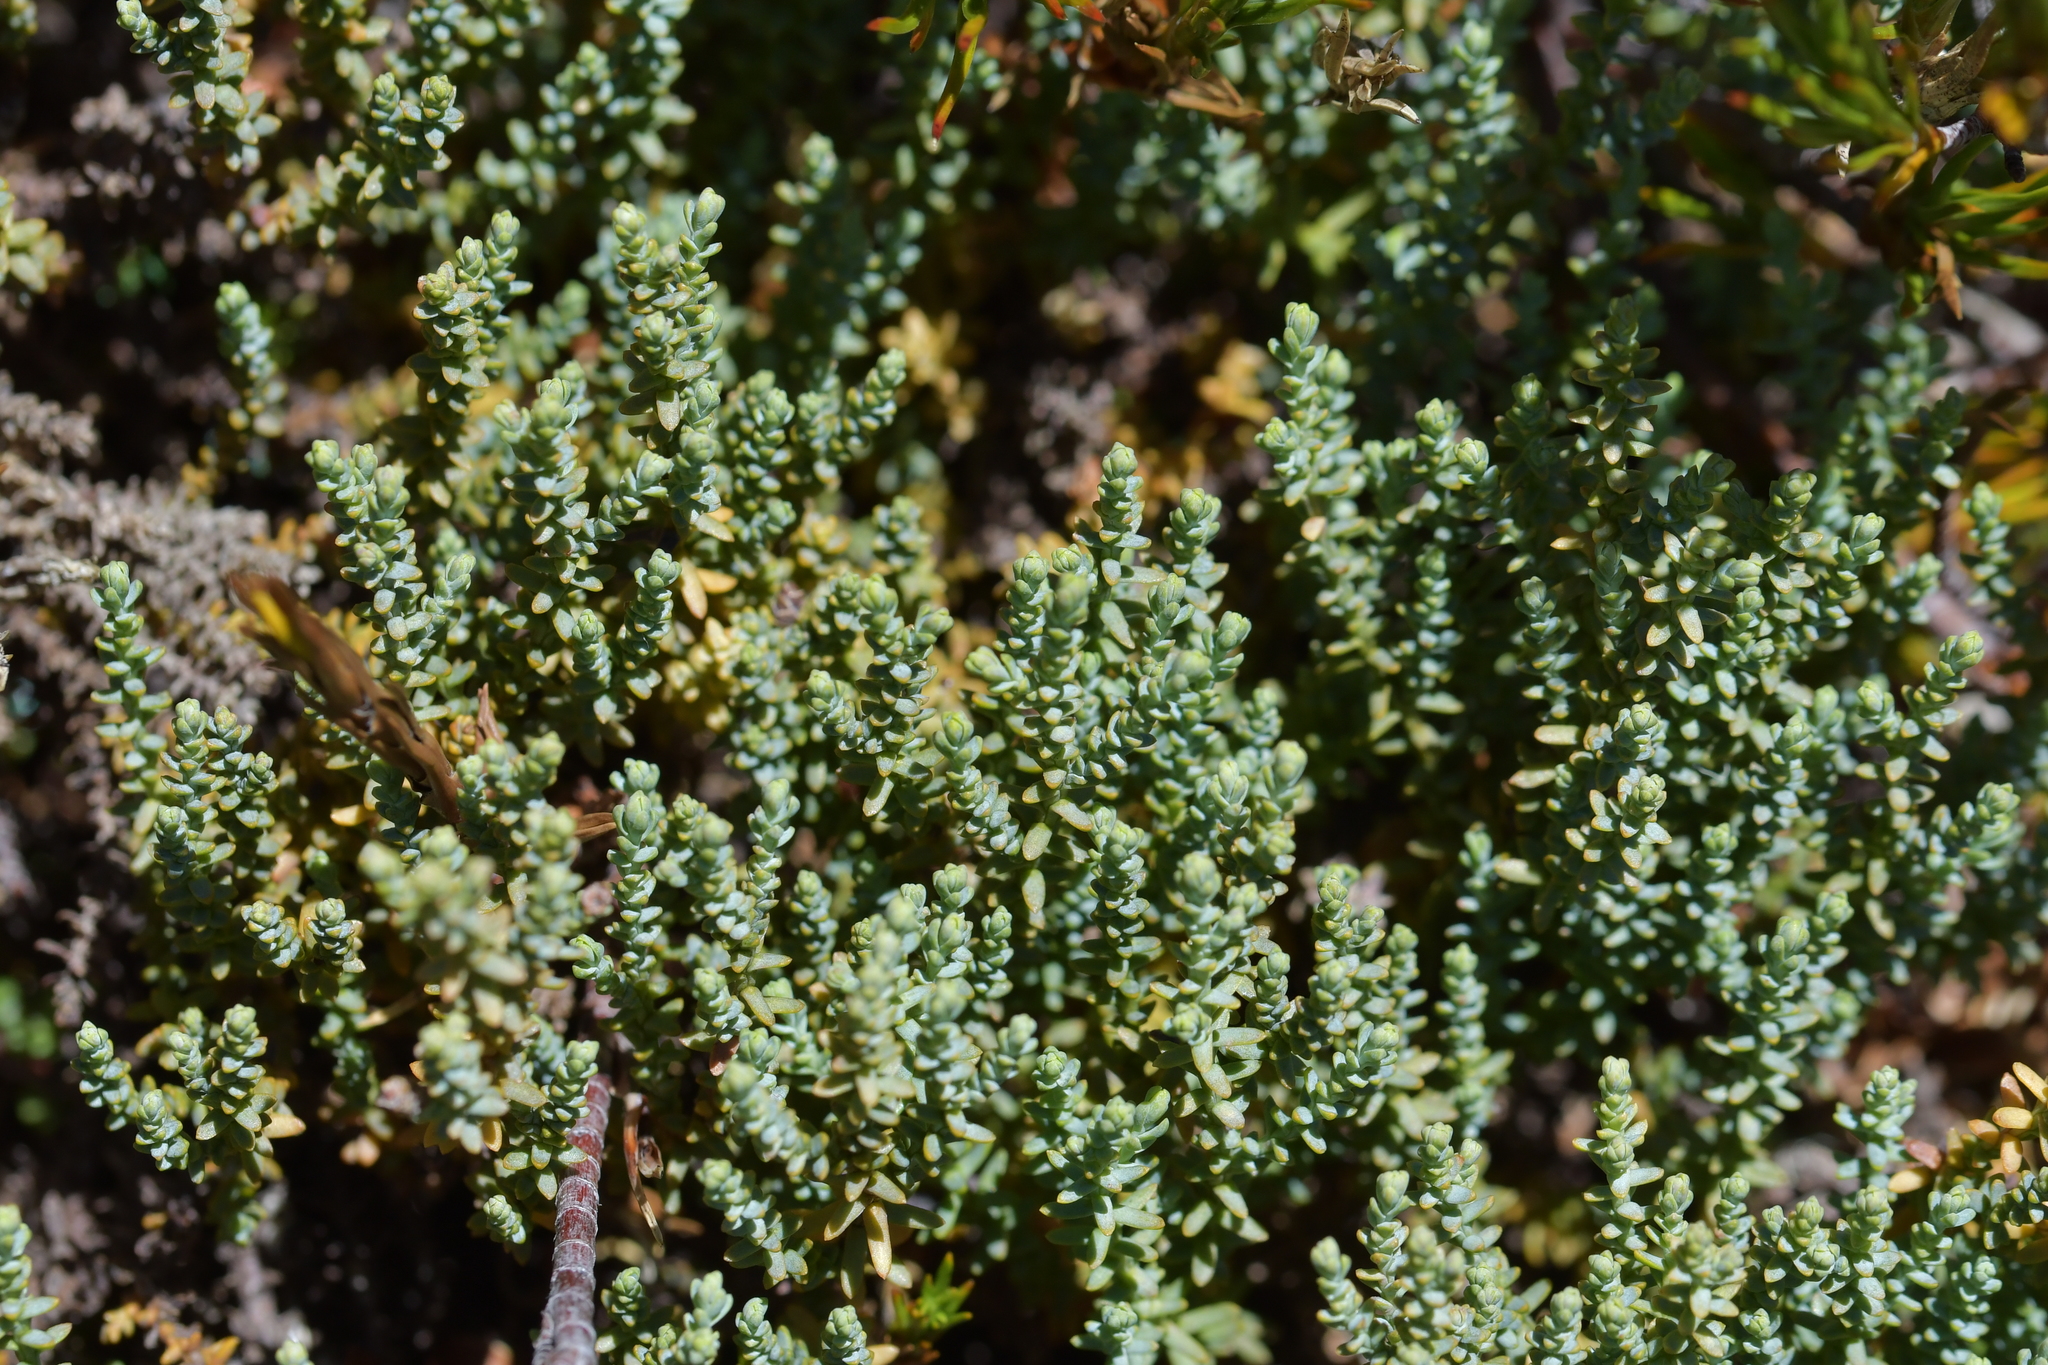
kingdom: Plantae
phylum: Tracheophyta
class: Pinopsida
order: Pinales
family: Podocarpaceae
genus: Lepidothamnus
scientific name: Lepidothamnus laxifolius
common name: Pygmy pine
